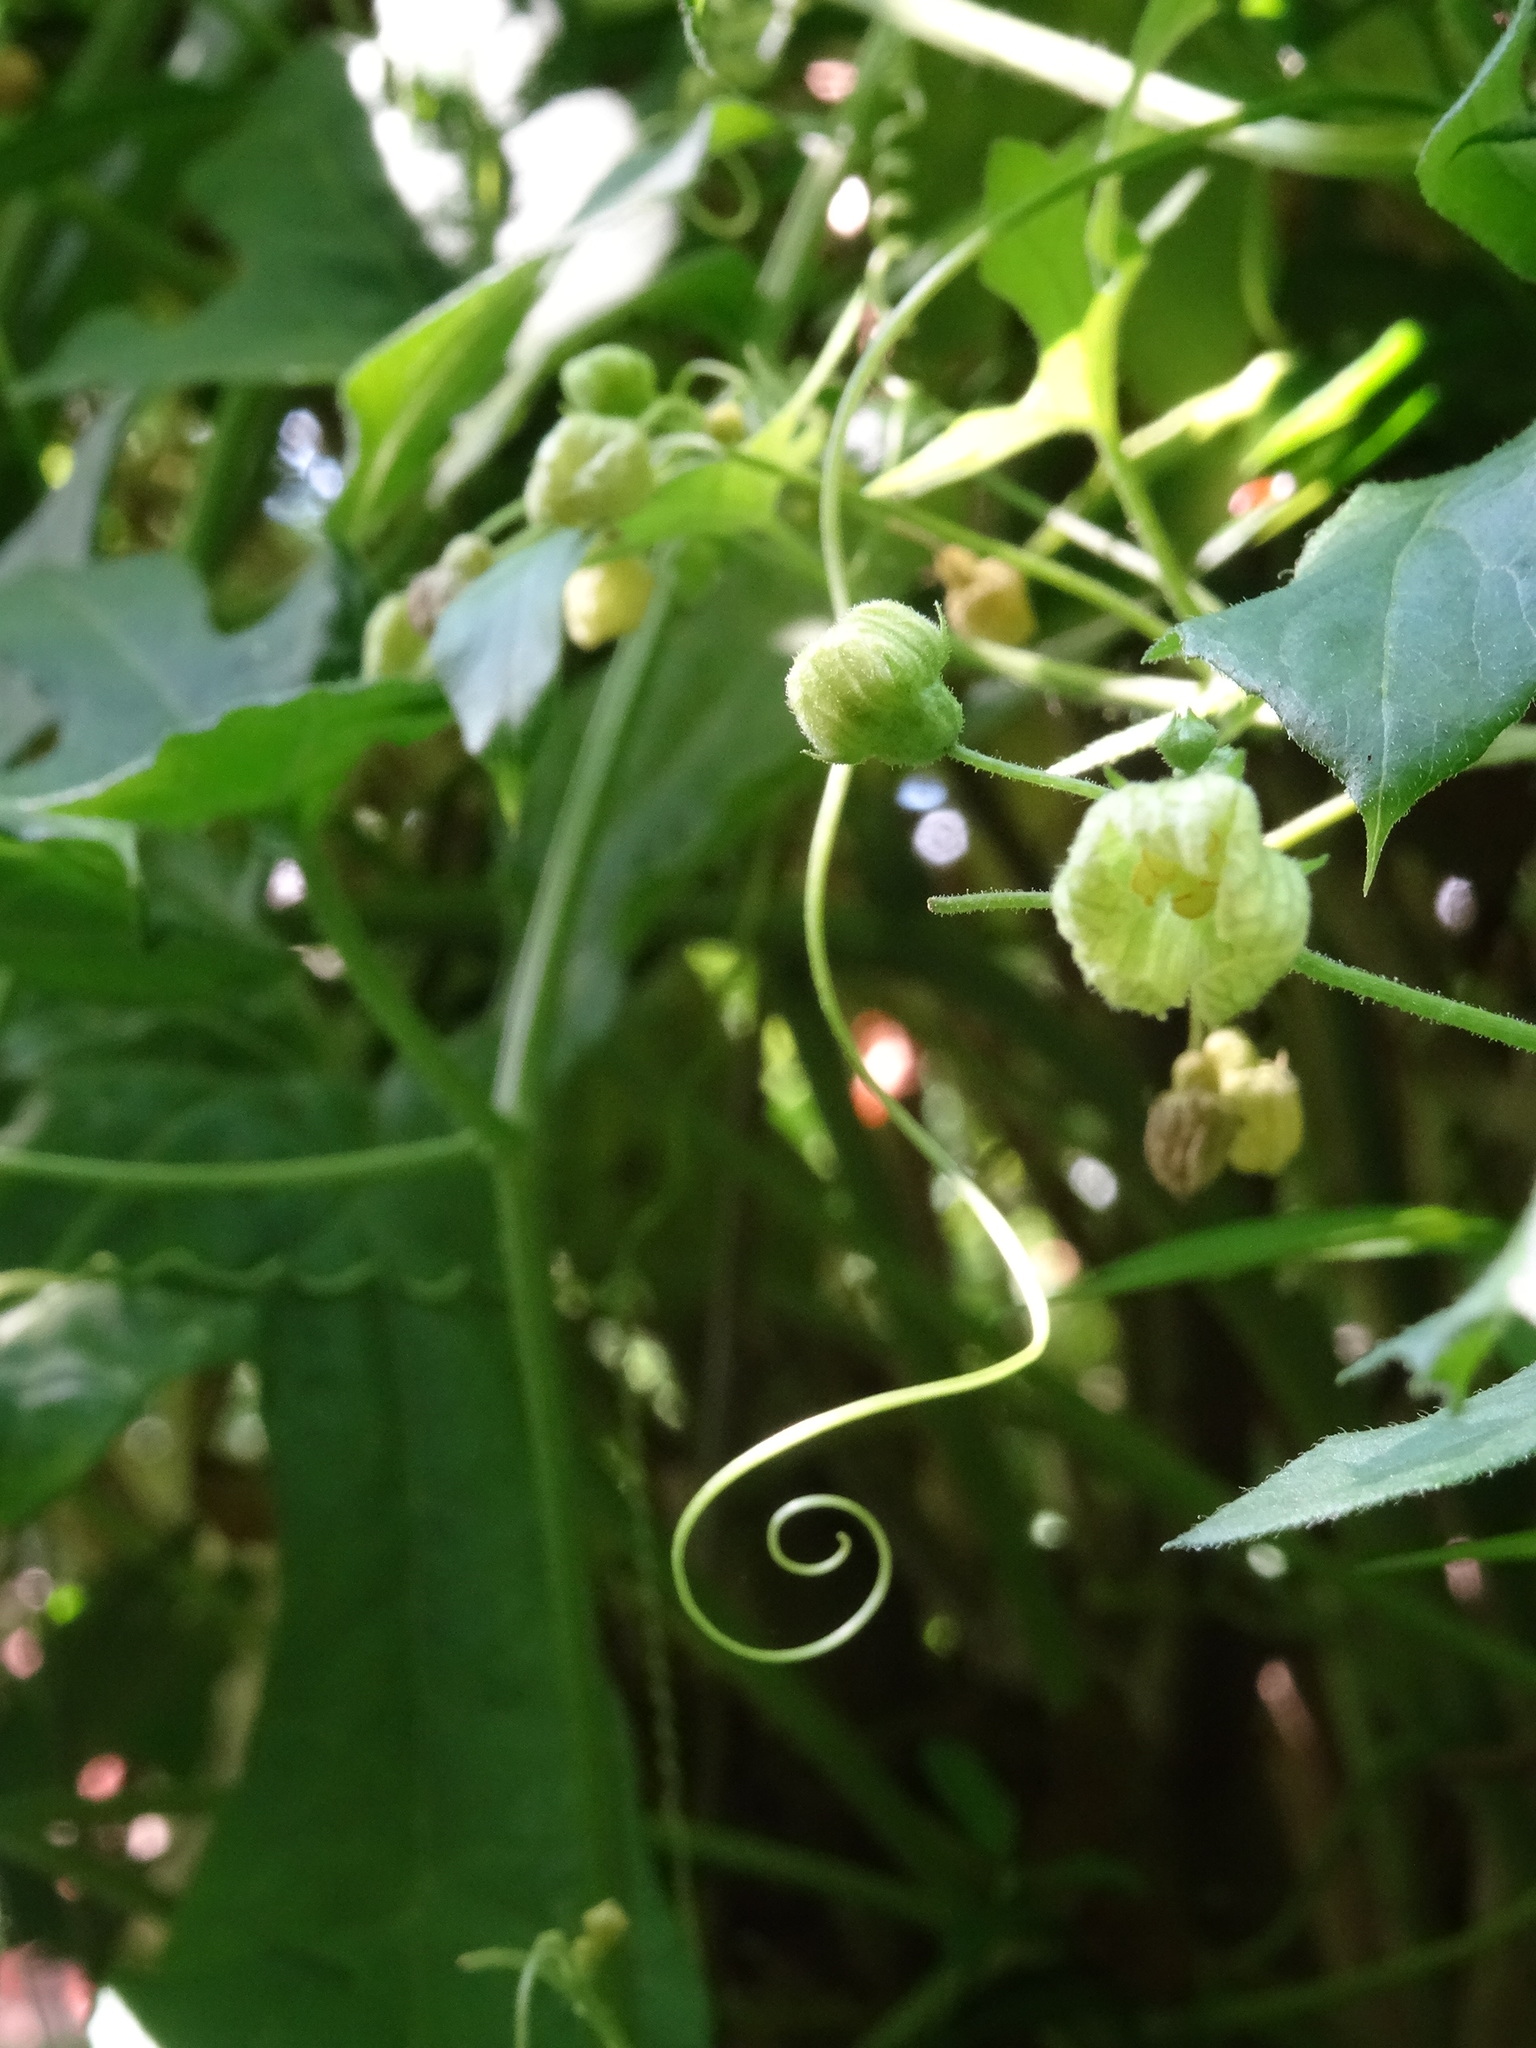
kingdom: Plantae
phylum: Tracheophyta
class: Magnoliopsida
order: Cucurbitales
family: Cucurbitaceae
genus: Bryonia
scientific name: Bryonia cretica
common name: Cretan bryony
